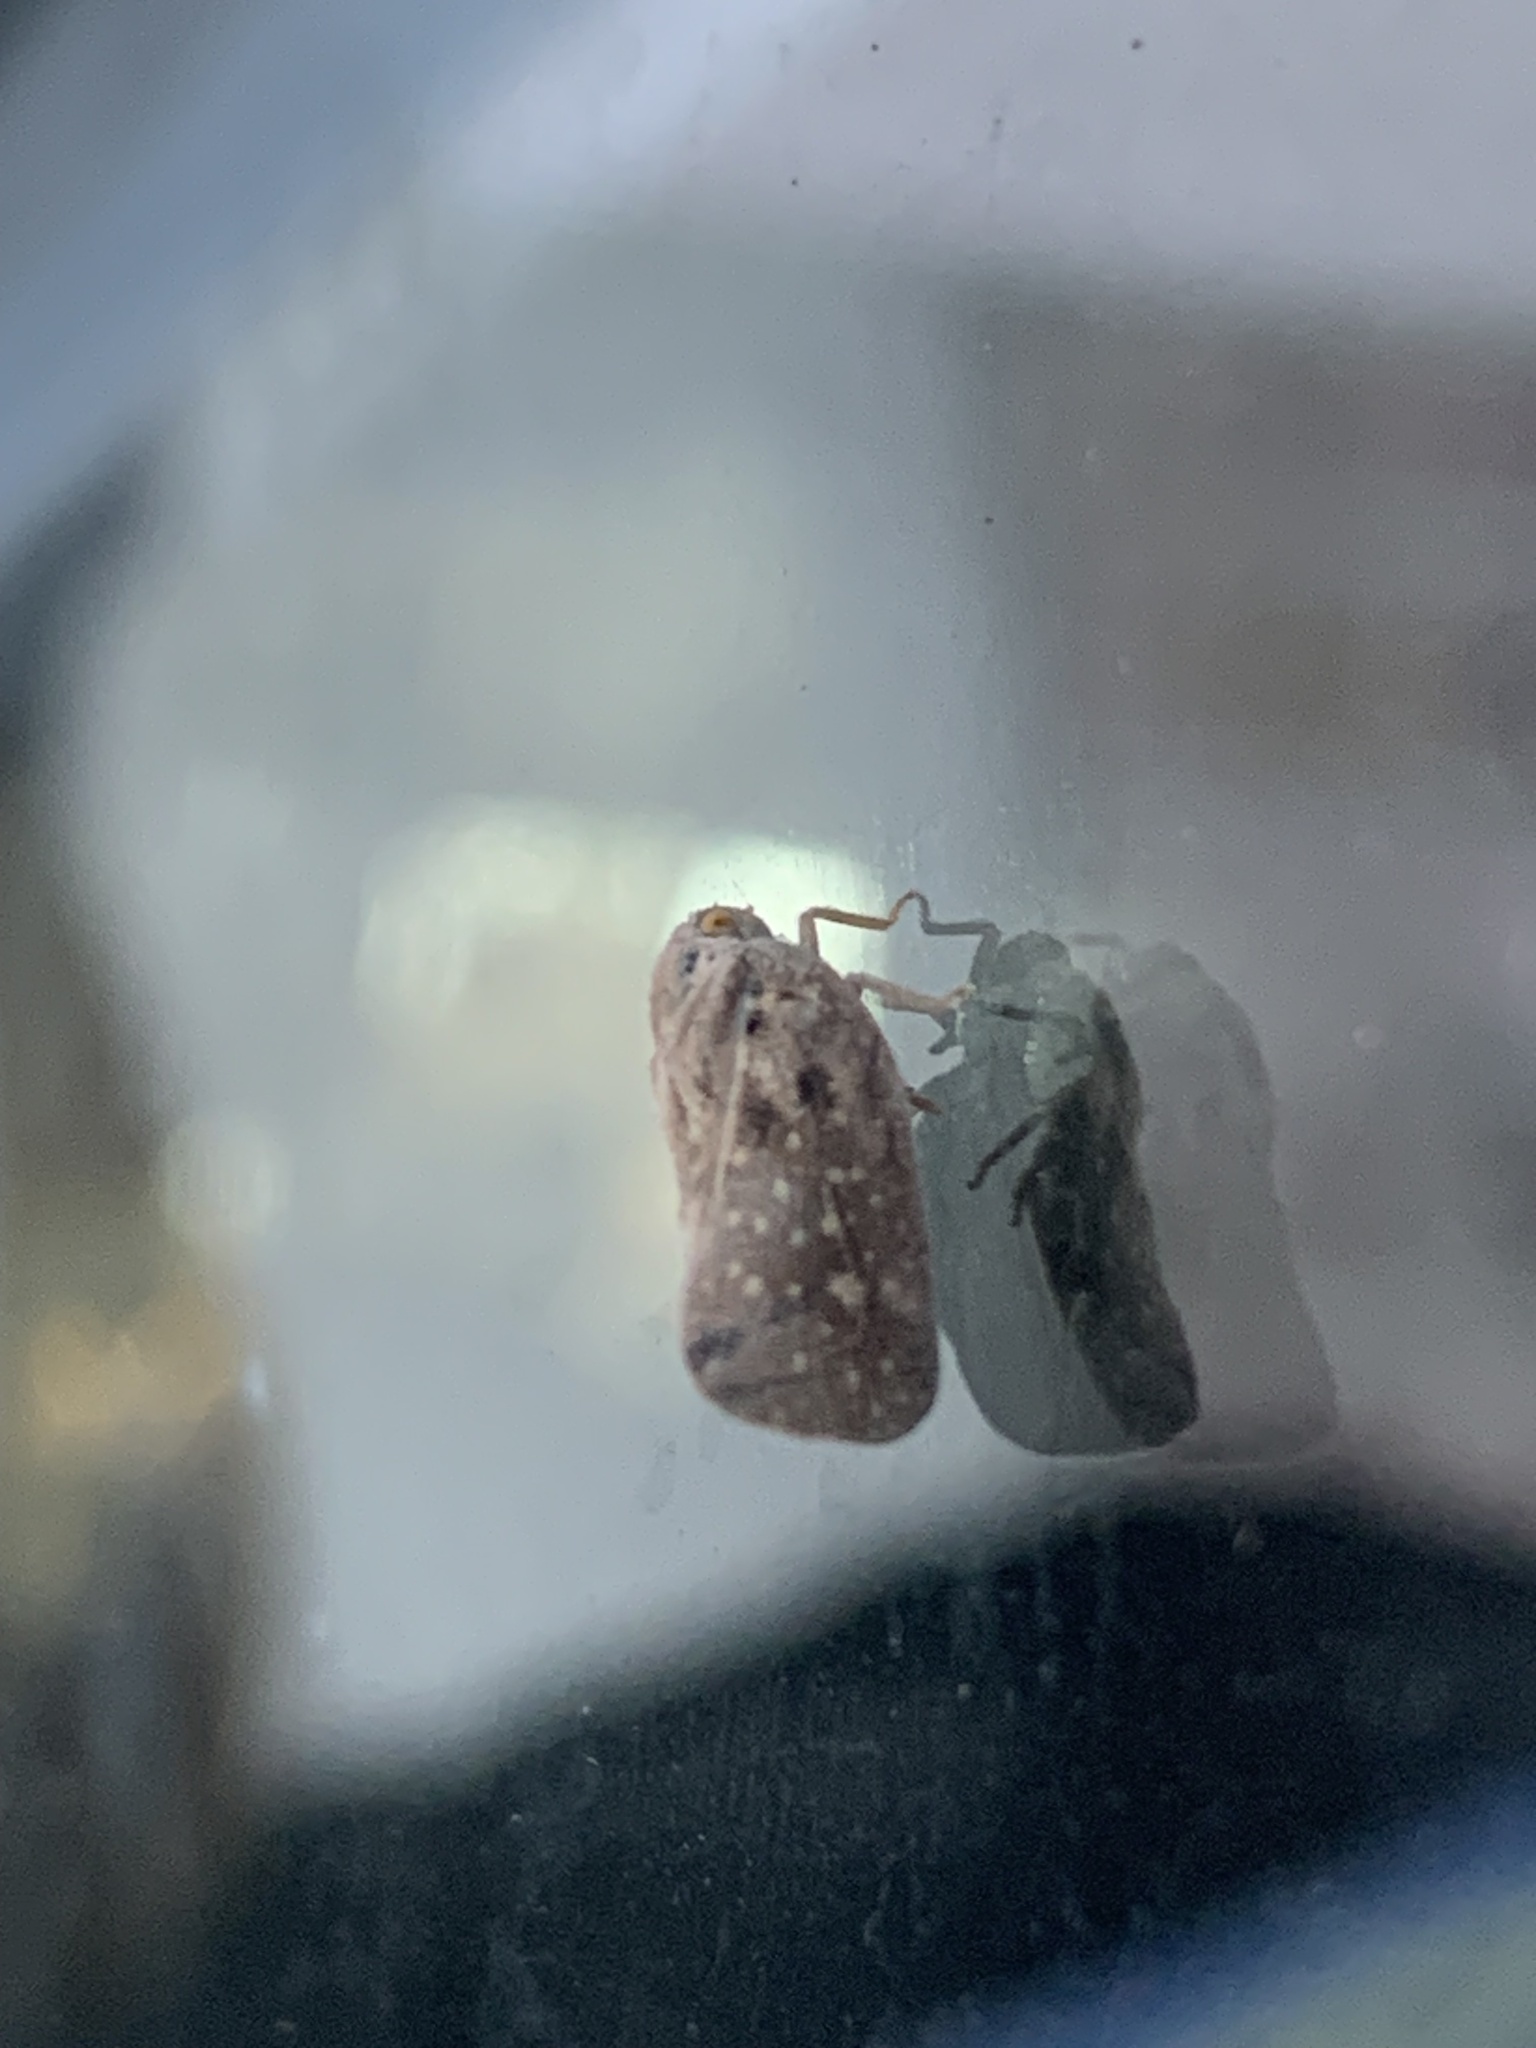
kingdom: Animalia
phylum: Arthropoda
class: Insecta
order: Hemiptera
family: Flatidae
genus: Metcalfa
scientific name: Metcalfa pruinosa
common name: Citrus flatid planthopper
